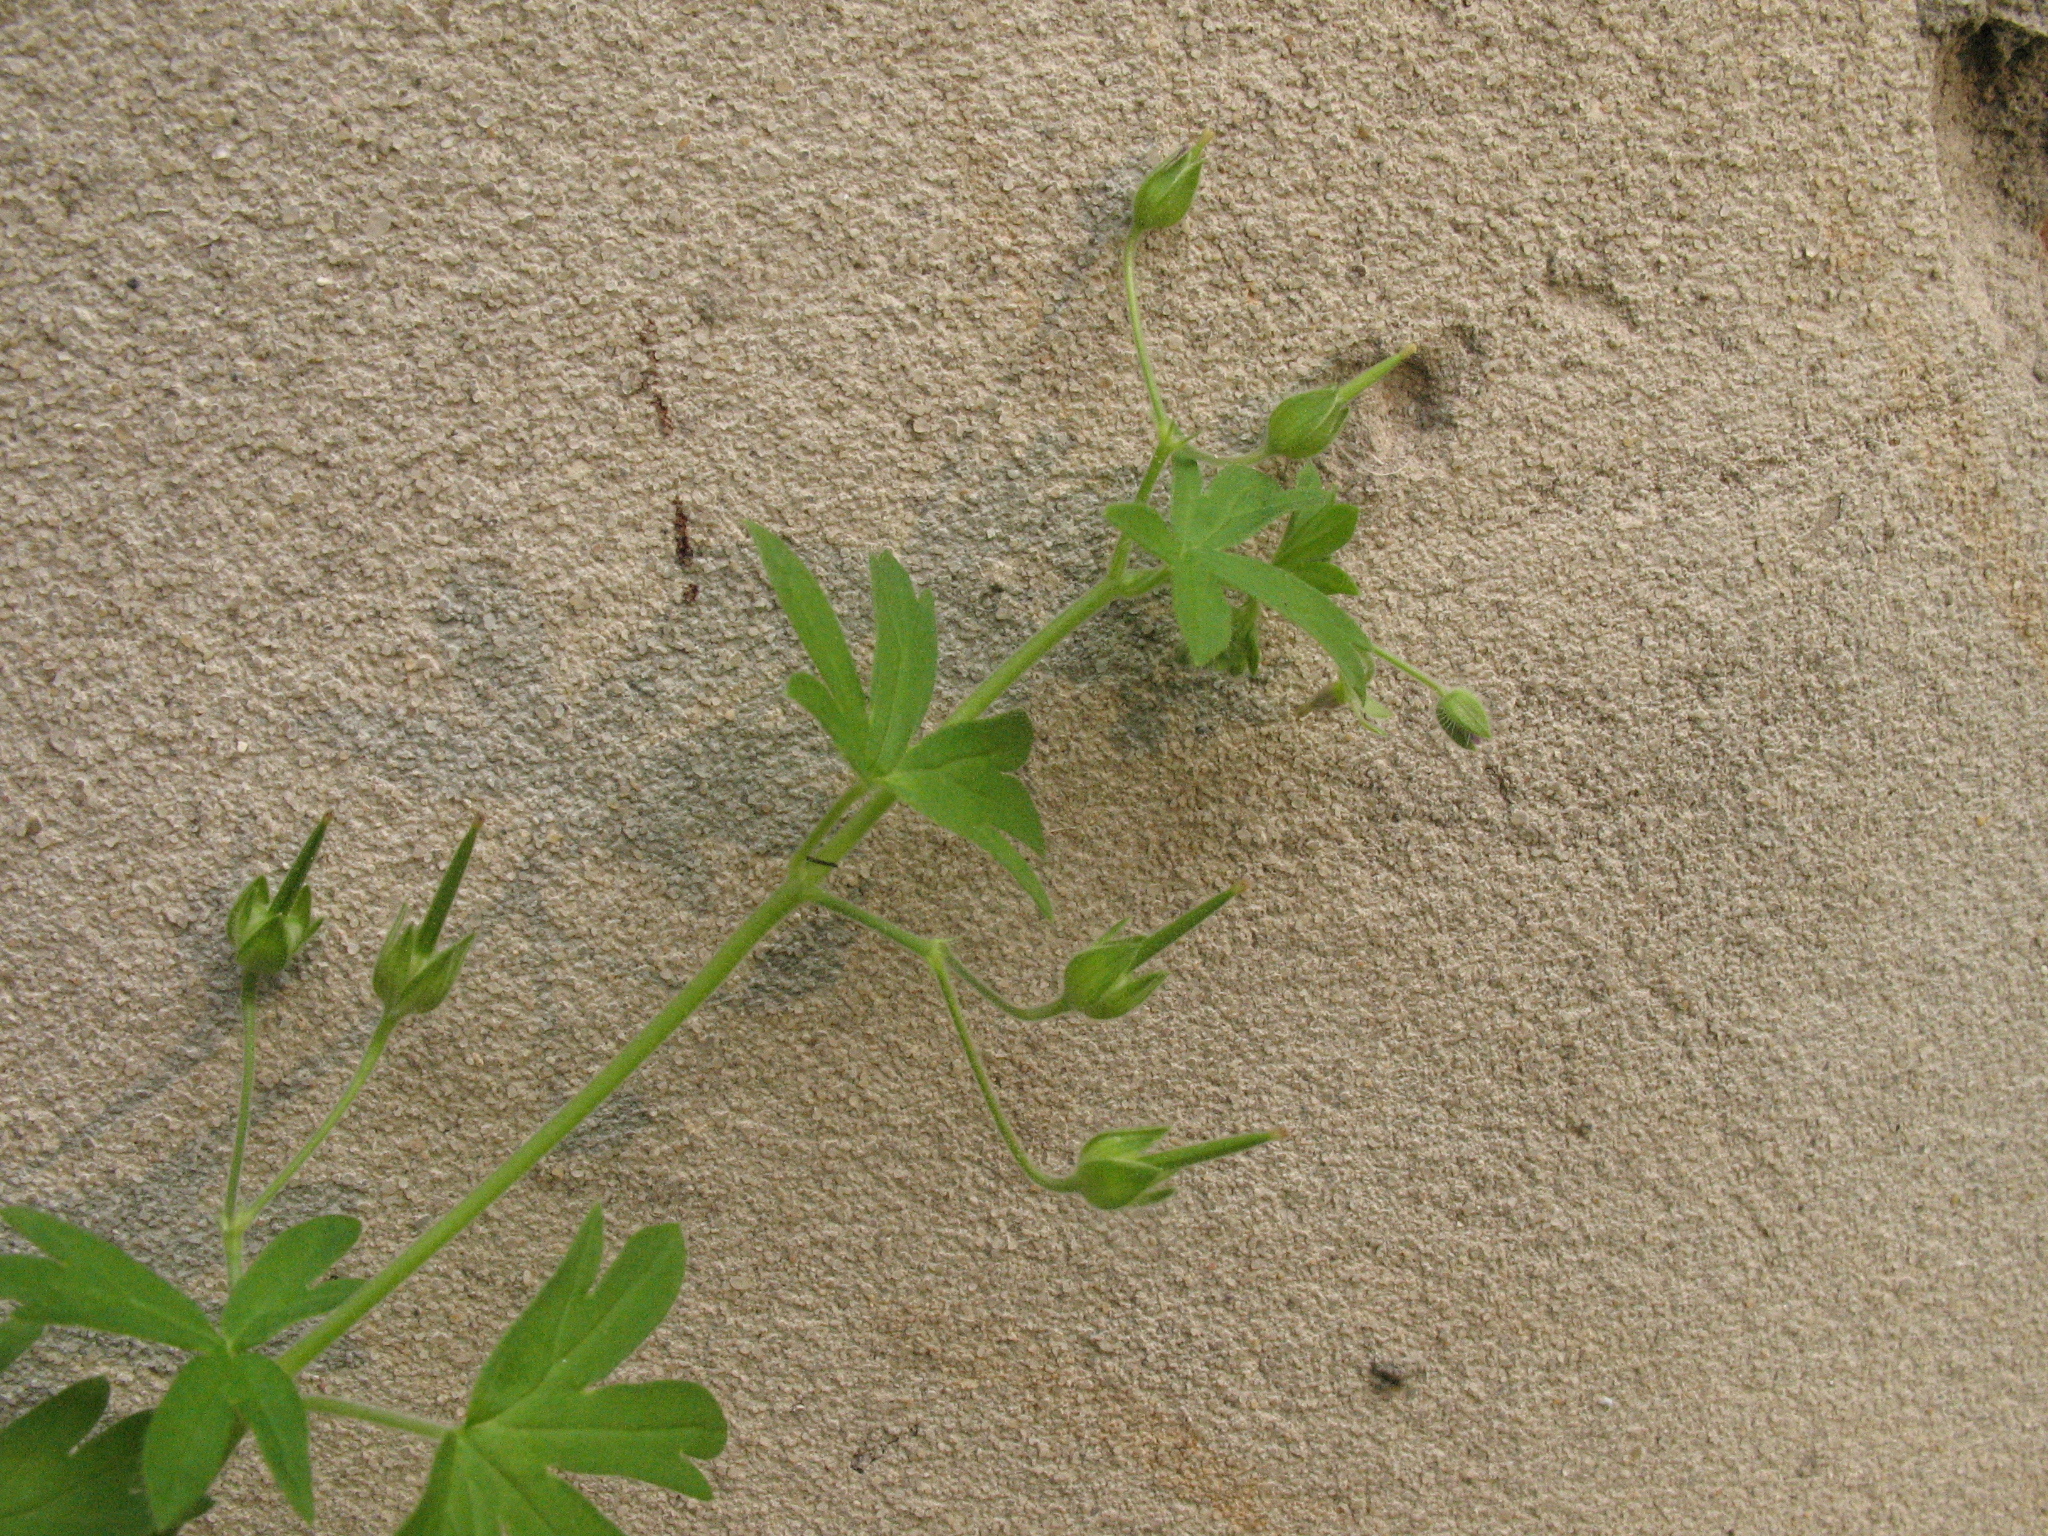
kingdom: Plantae
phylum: Tracheophyta
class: Magnoliopsida
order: Geraniales
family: Geraniaceae
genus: Geranium
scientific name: Geranium pusillum
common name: Small geranium
